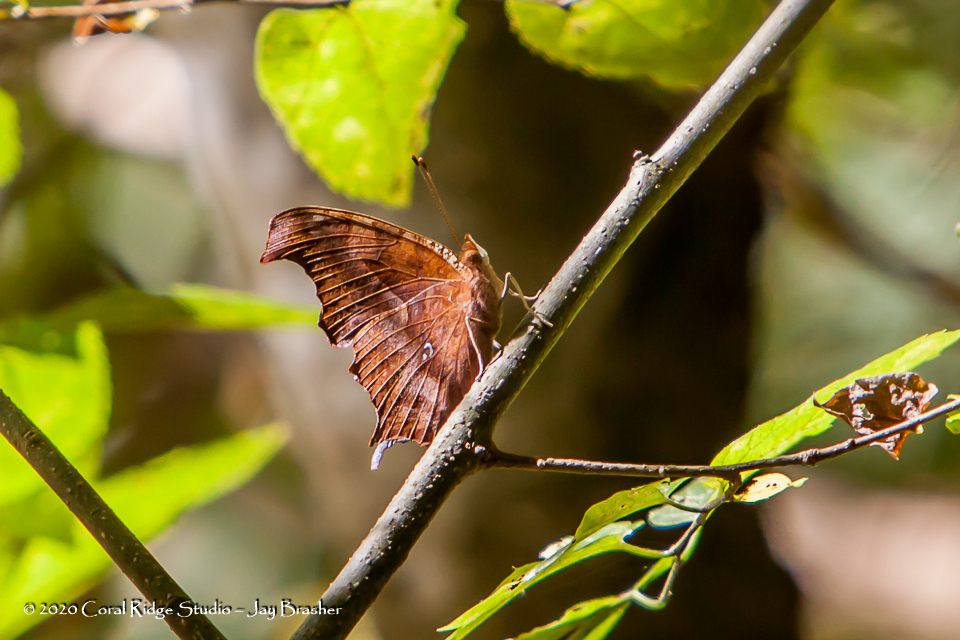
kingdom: Animalia
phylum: Arthropoda
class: Insecta
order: Lepidoptera
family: Nymphalidae
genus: Polygonia
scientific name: Polygonia interrogationis
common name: Question mark
